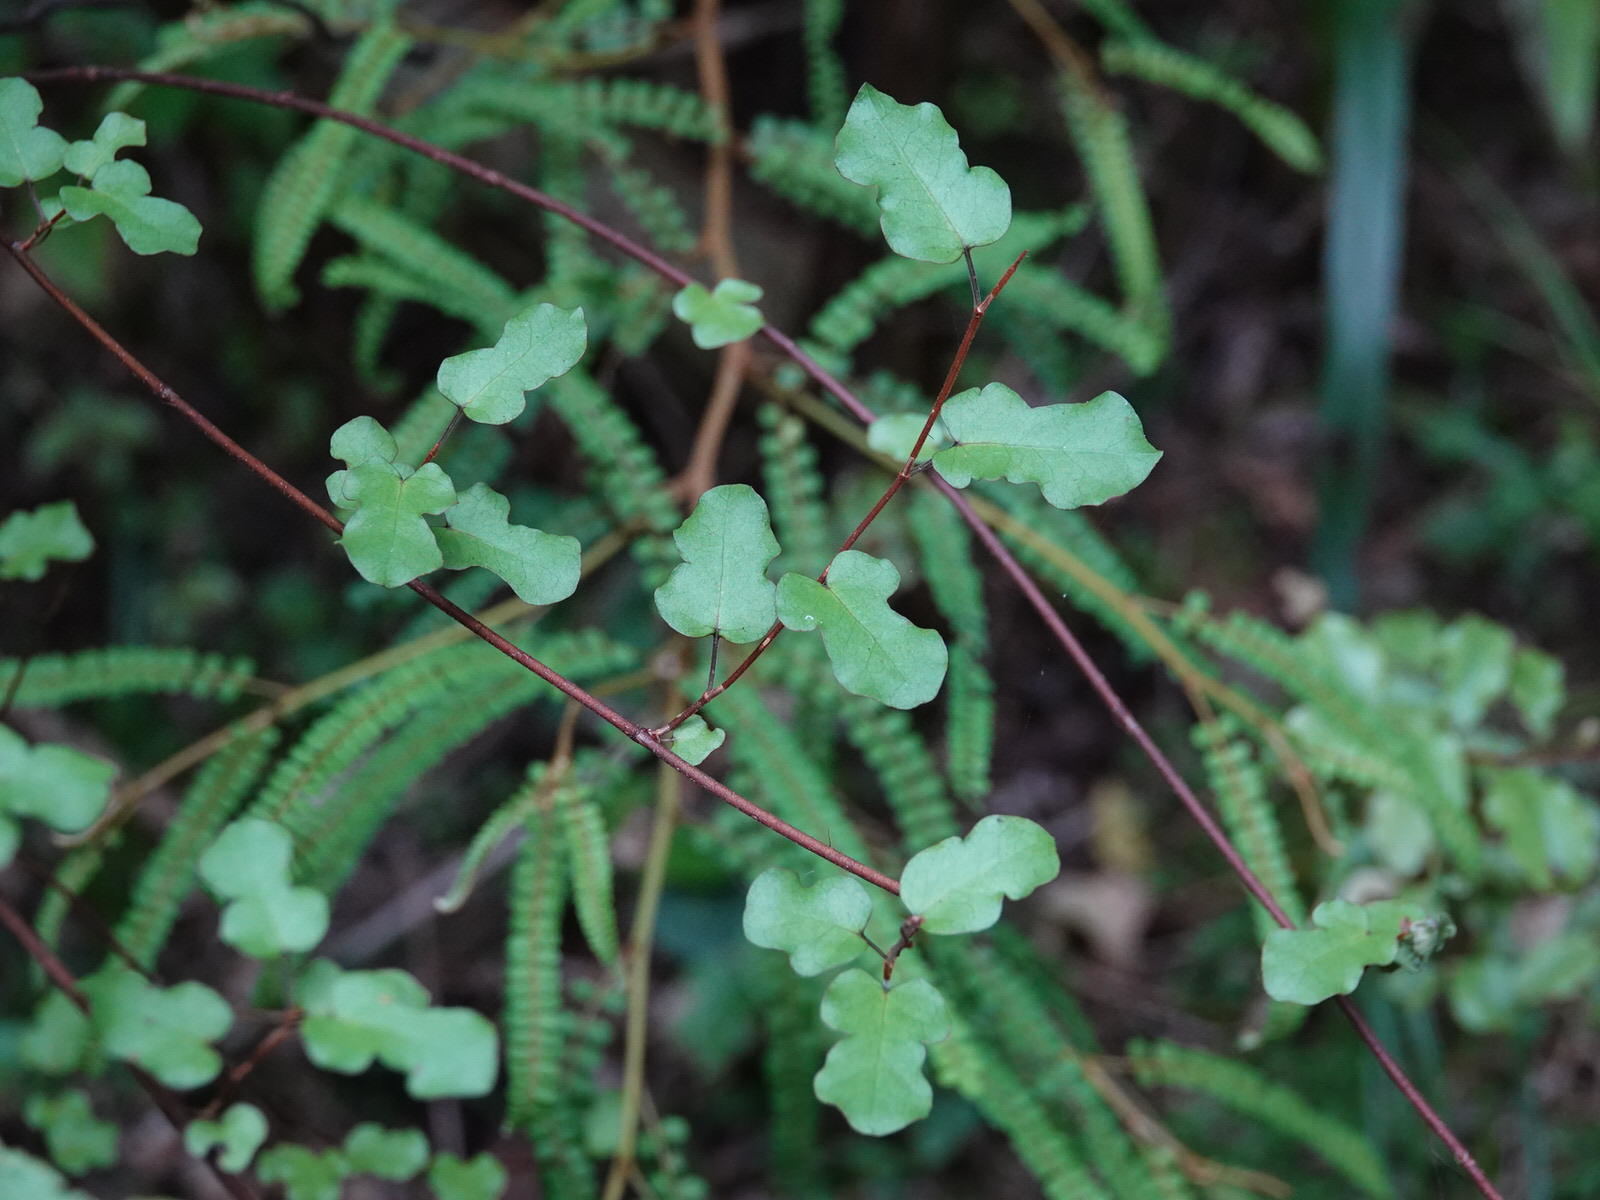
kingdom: Plantae
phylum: Tracheophyta
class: Magnoliopsida
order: Caryophyllales
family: Polygonaceae
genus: Muehlenbeckia
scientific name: Muehlenbeckia australis
